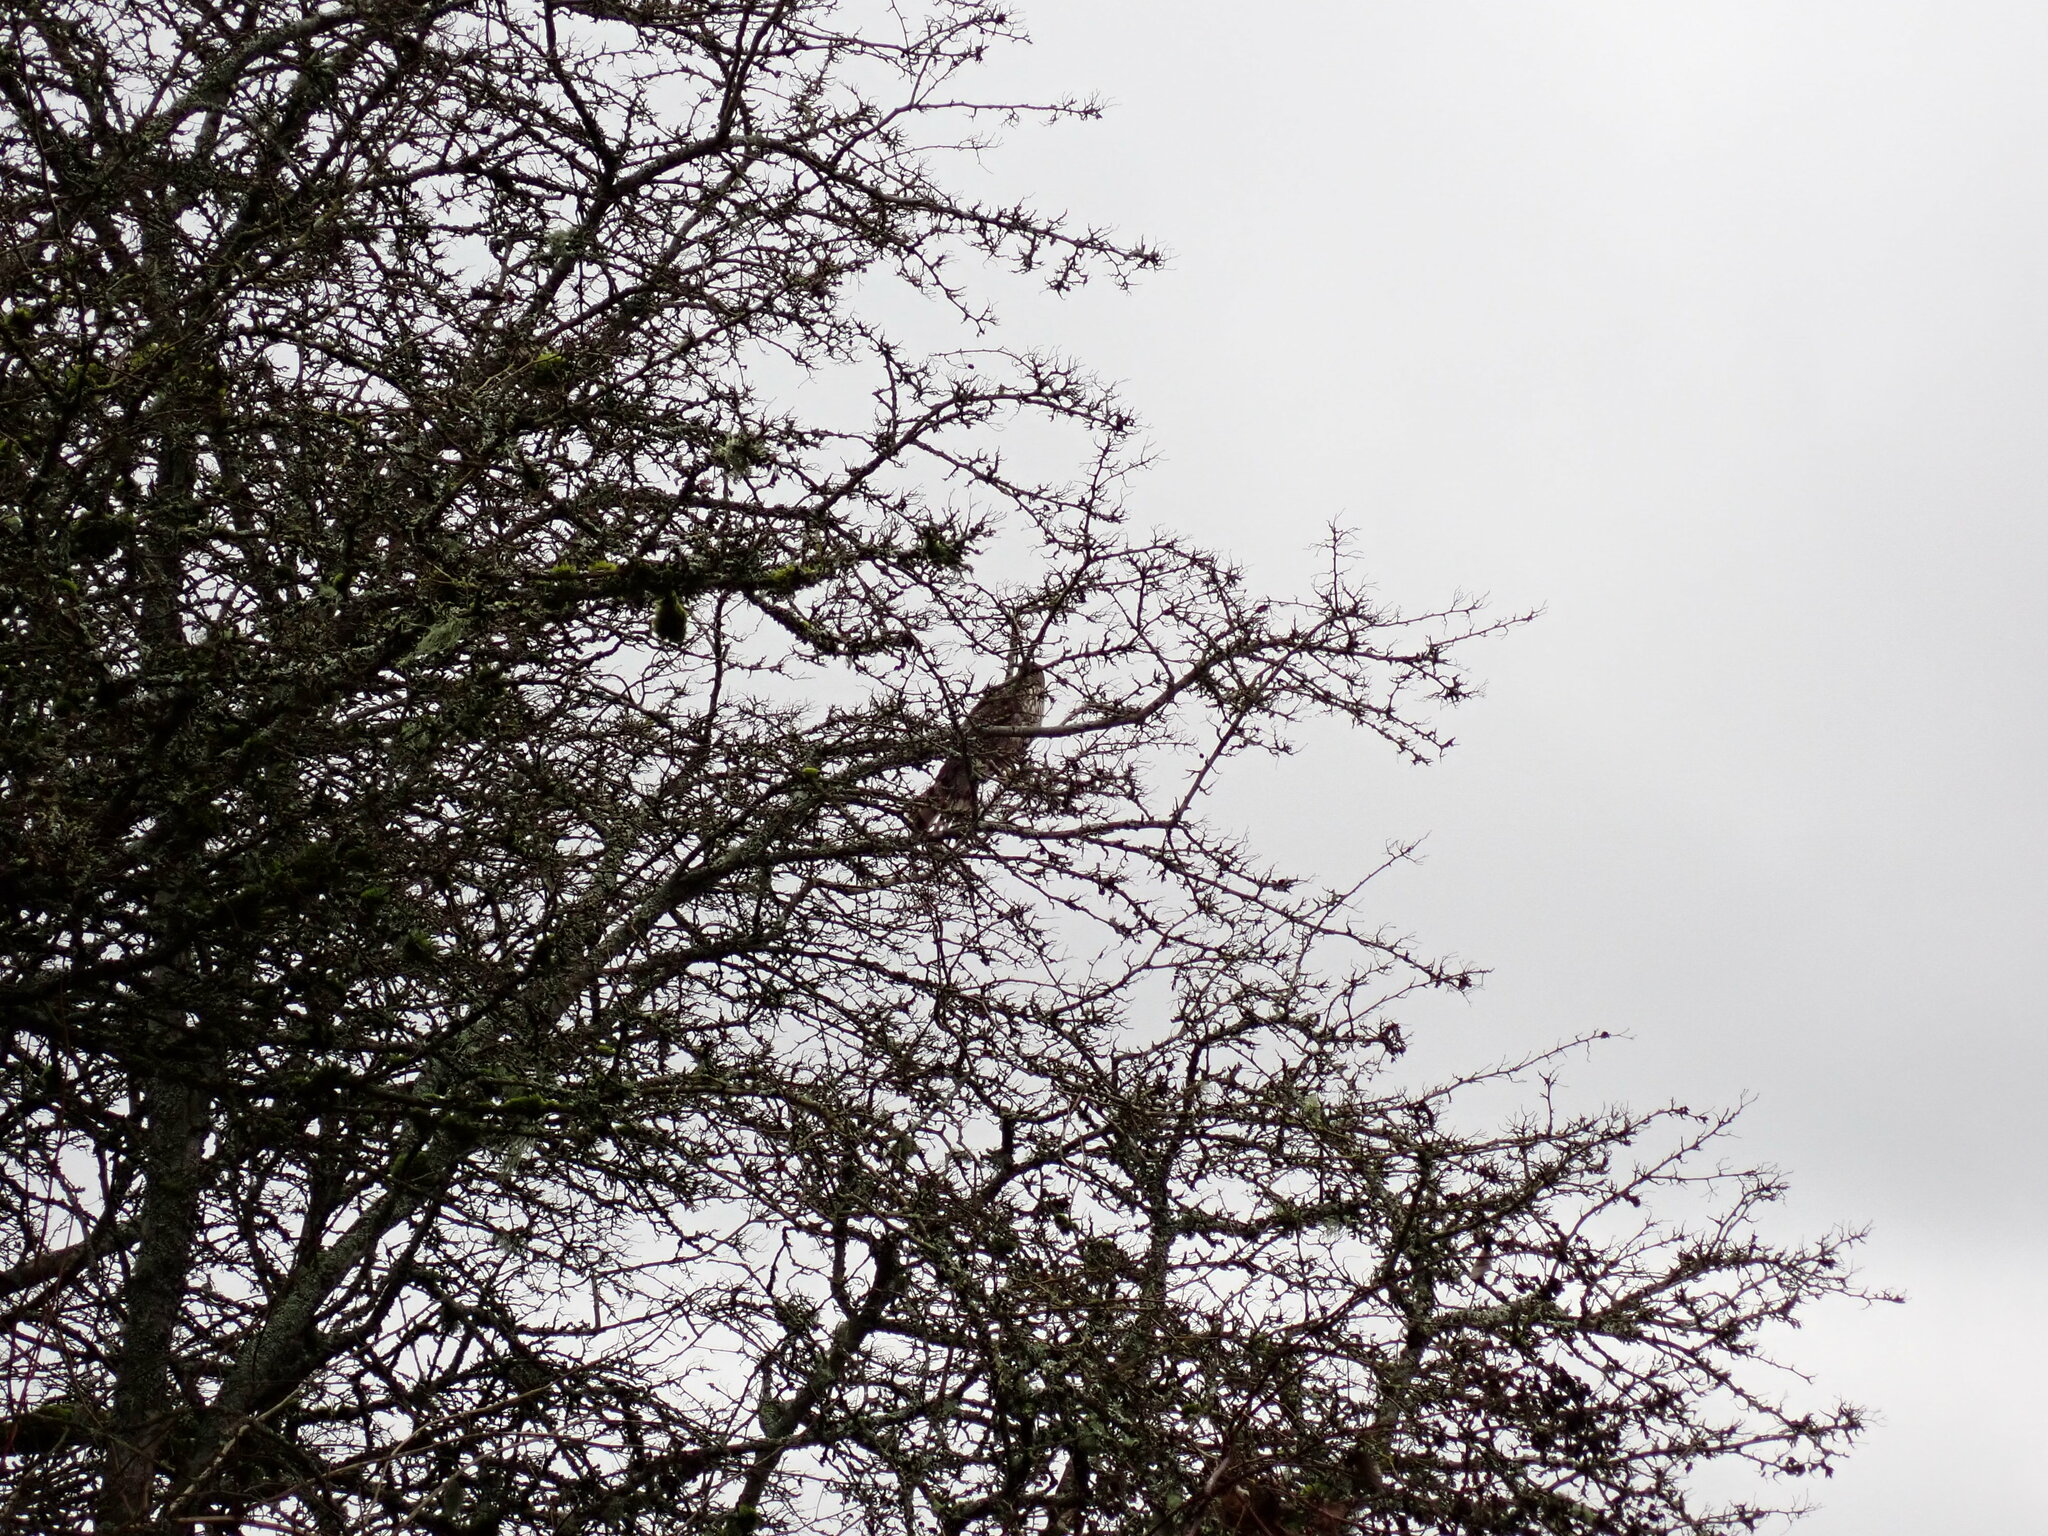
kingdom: Animalia
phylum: Chordata
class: Aves
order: Accipitriformes
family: Accipitridae
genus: Accipiter
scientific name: Accipiter cooperii
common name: Cooper's hawk
